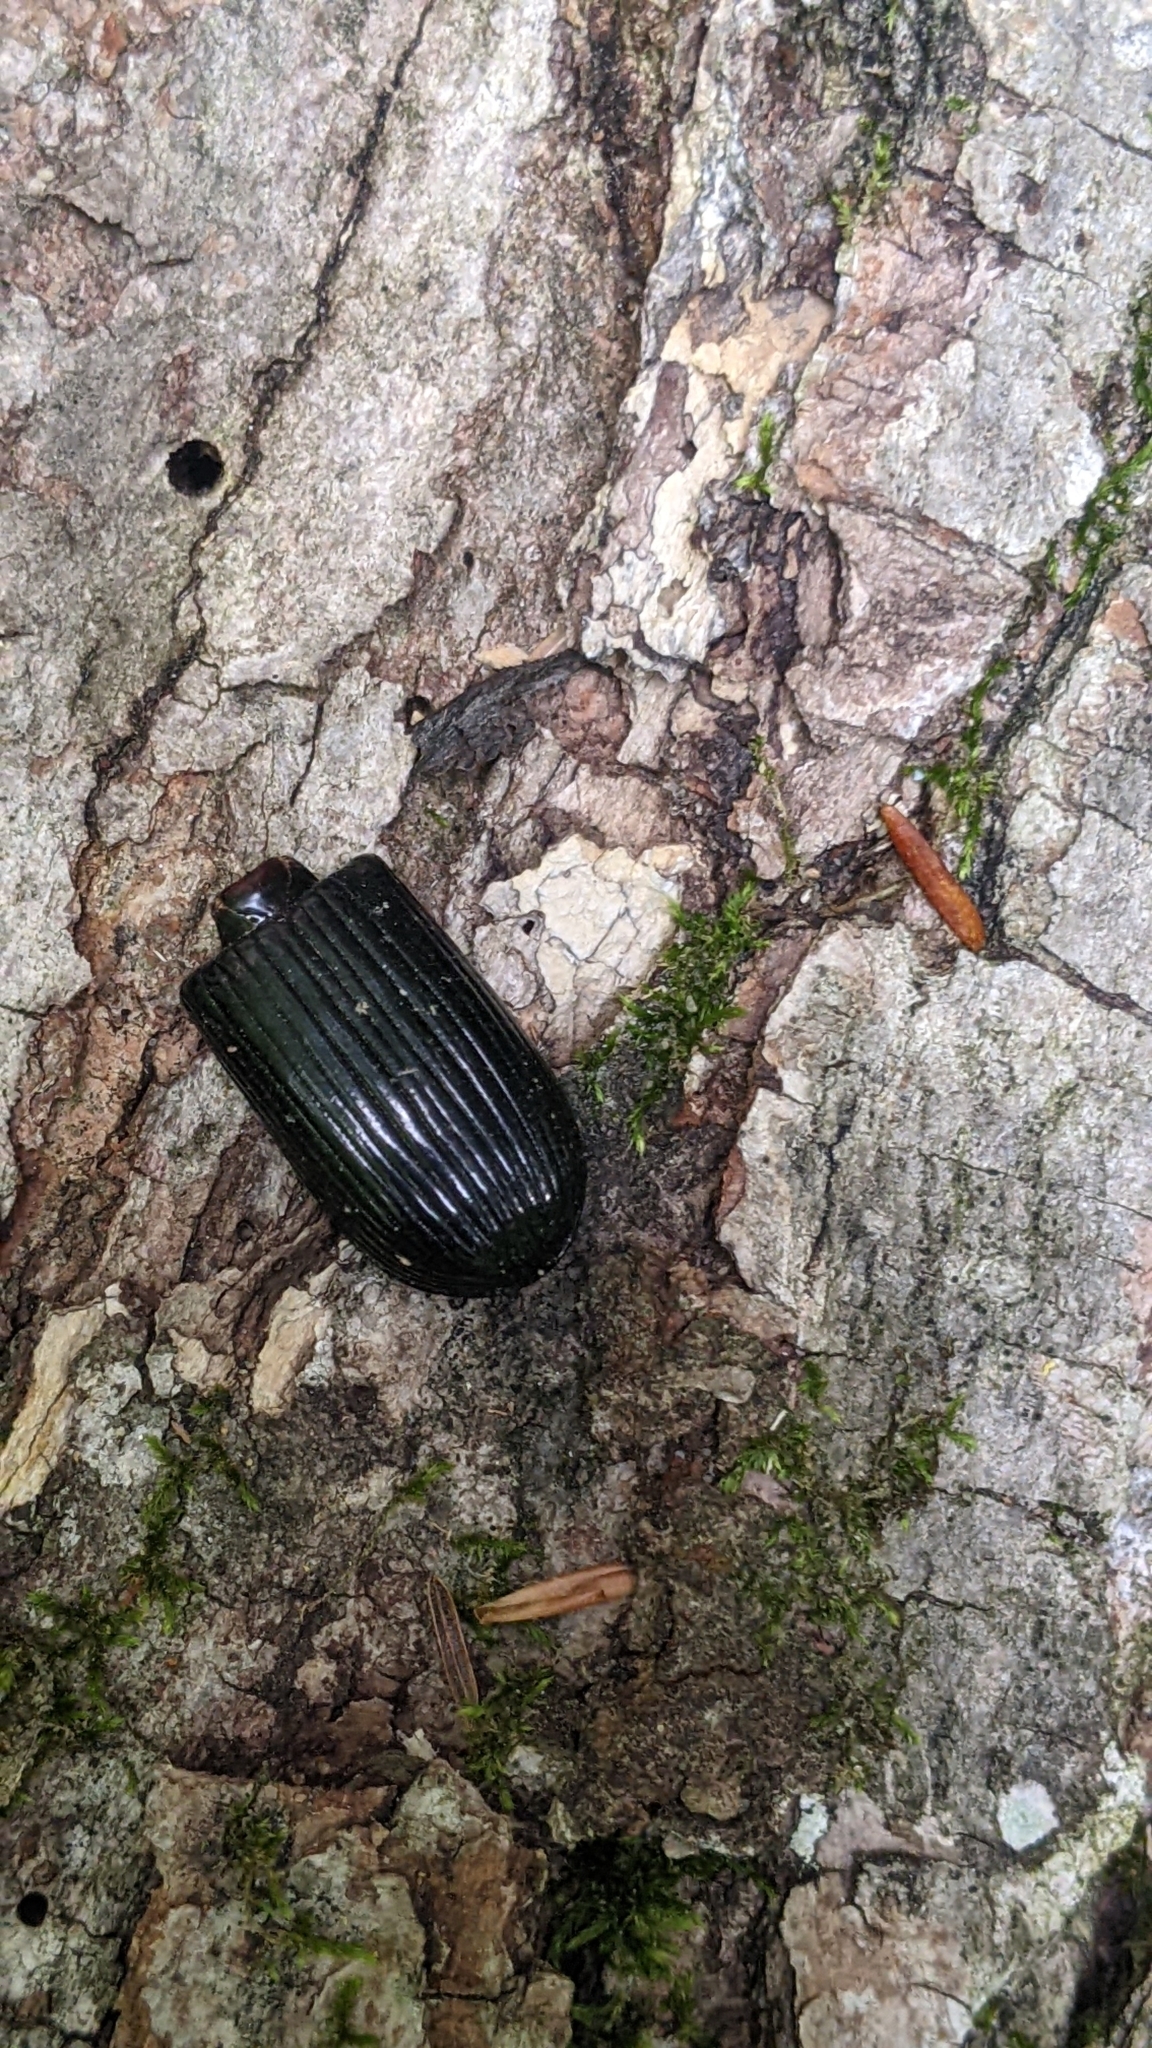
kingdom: Animalia
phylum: Arthropoda
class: Insecta
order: Coleoptera
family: Passalidae
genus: Odontotaenius
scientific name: Odontotaenius disjunctus
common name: Patent leather beetle
